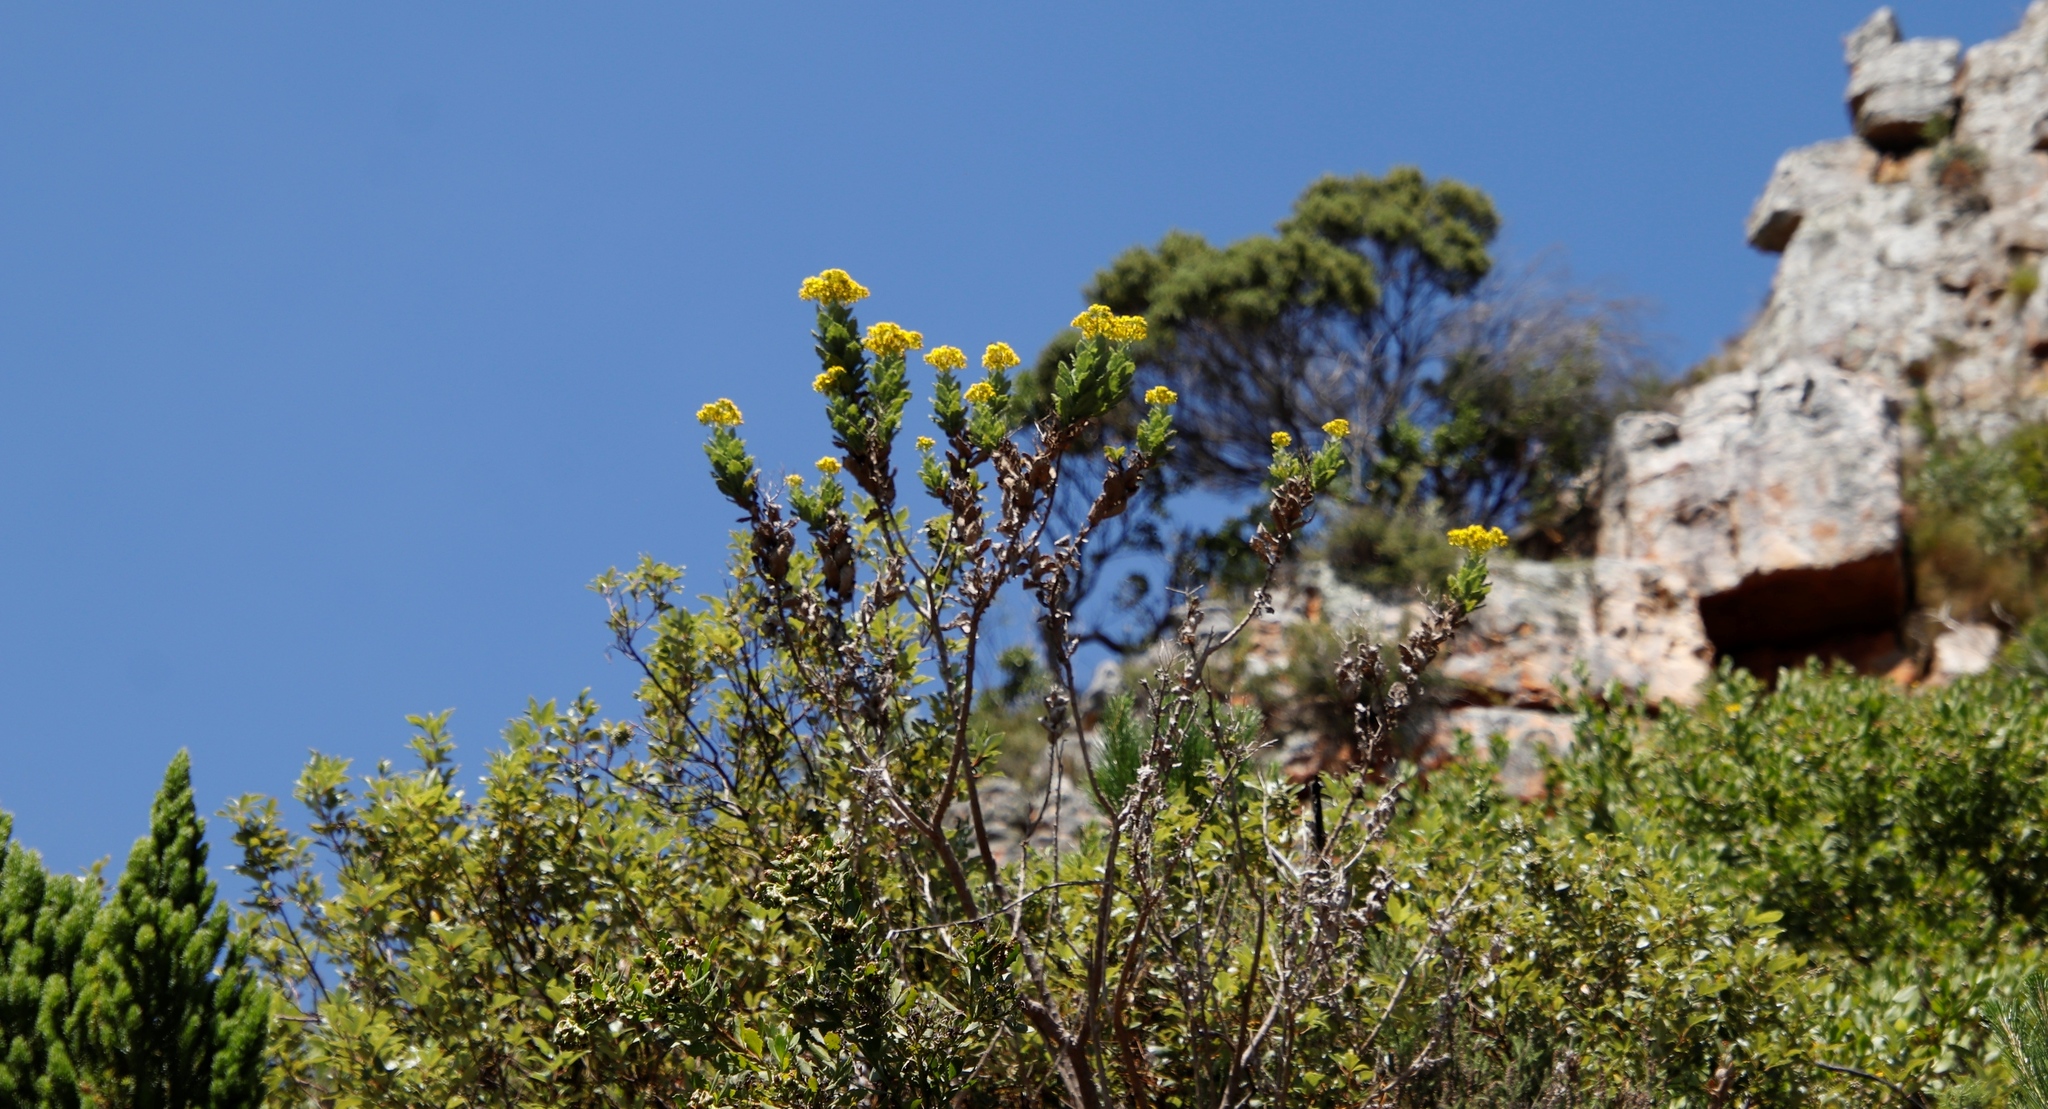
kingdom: Plantae
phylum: Tracheophyta
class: Magnoliopsida
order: Asterales
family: Asteraceae
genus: Senecio
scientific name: Senecio rigidus
